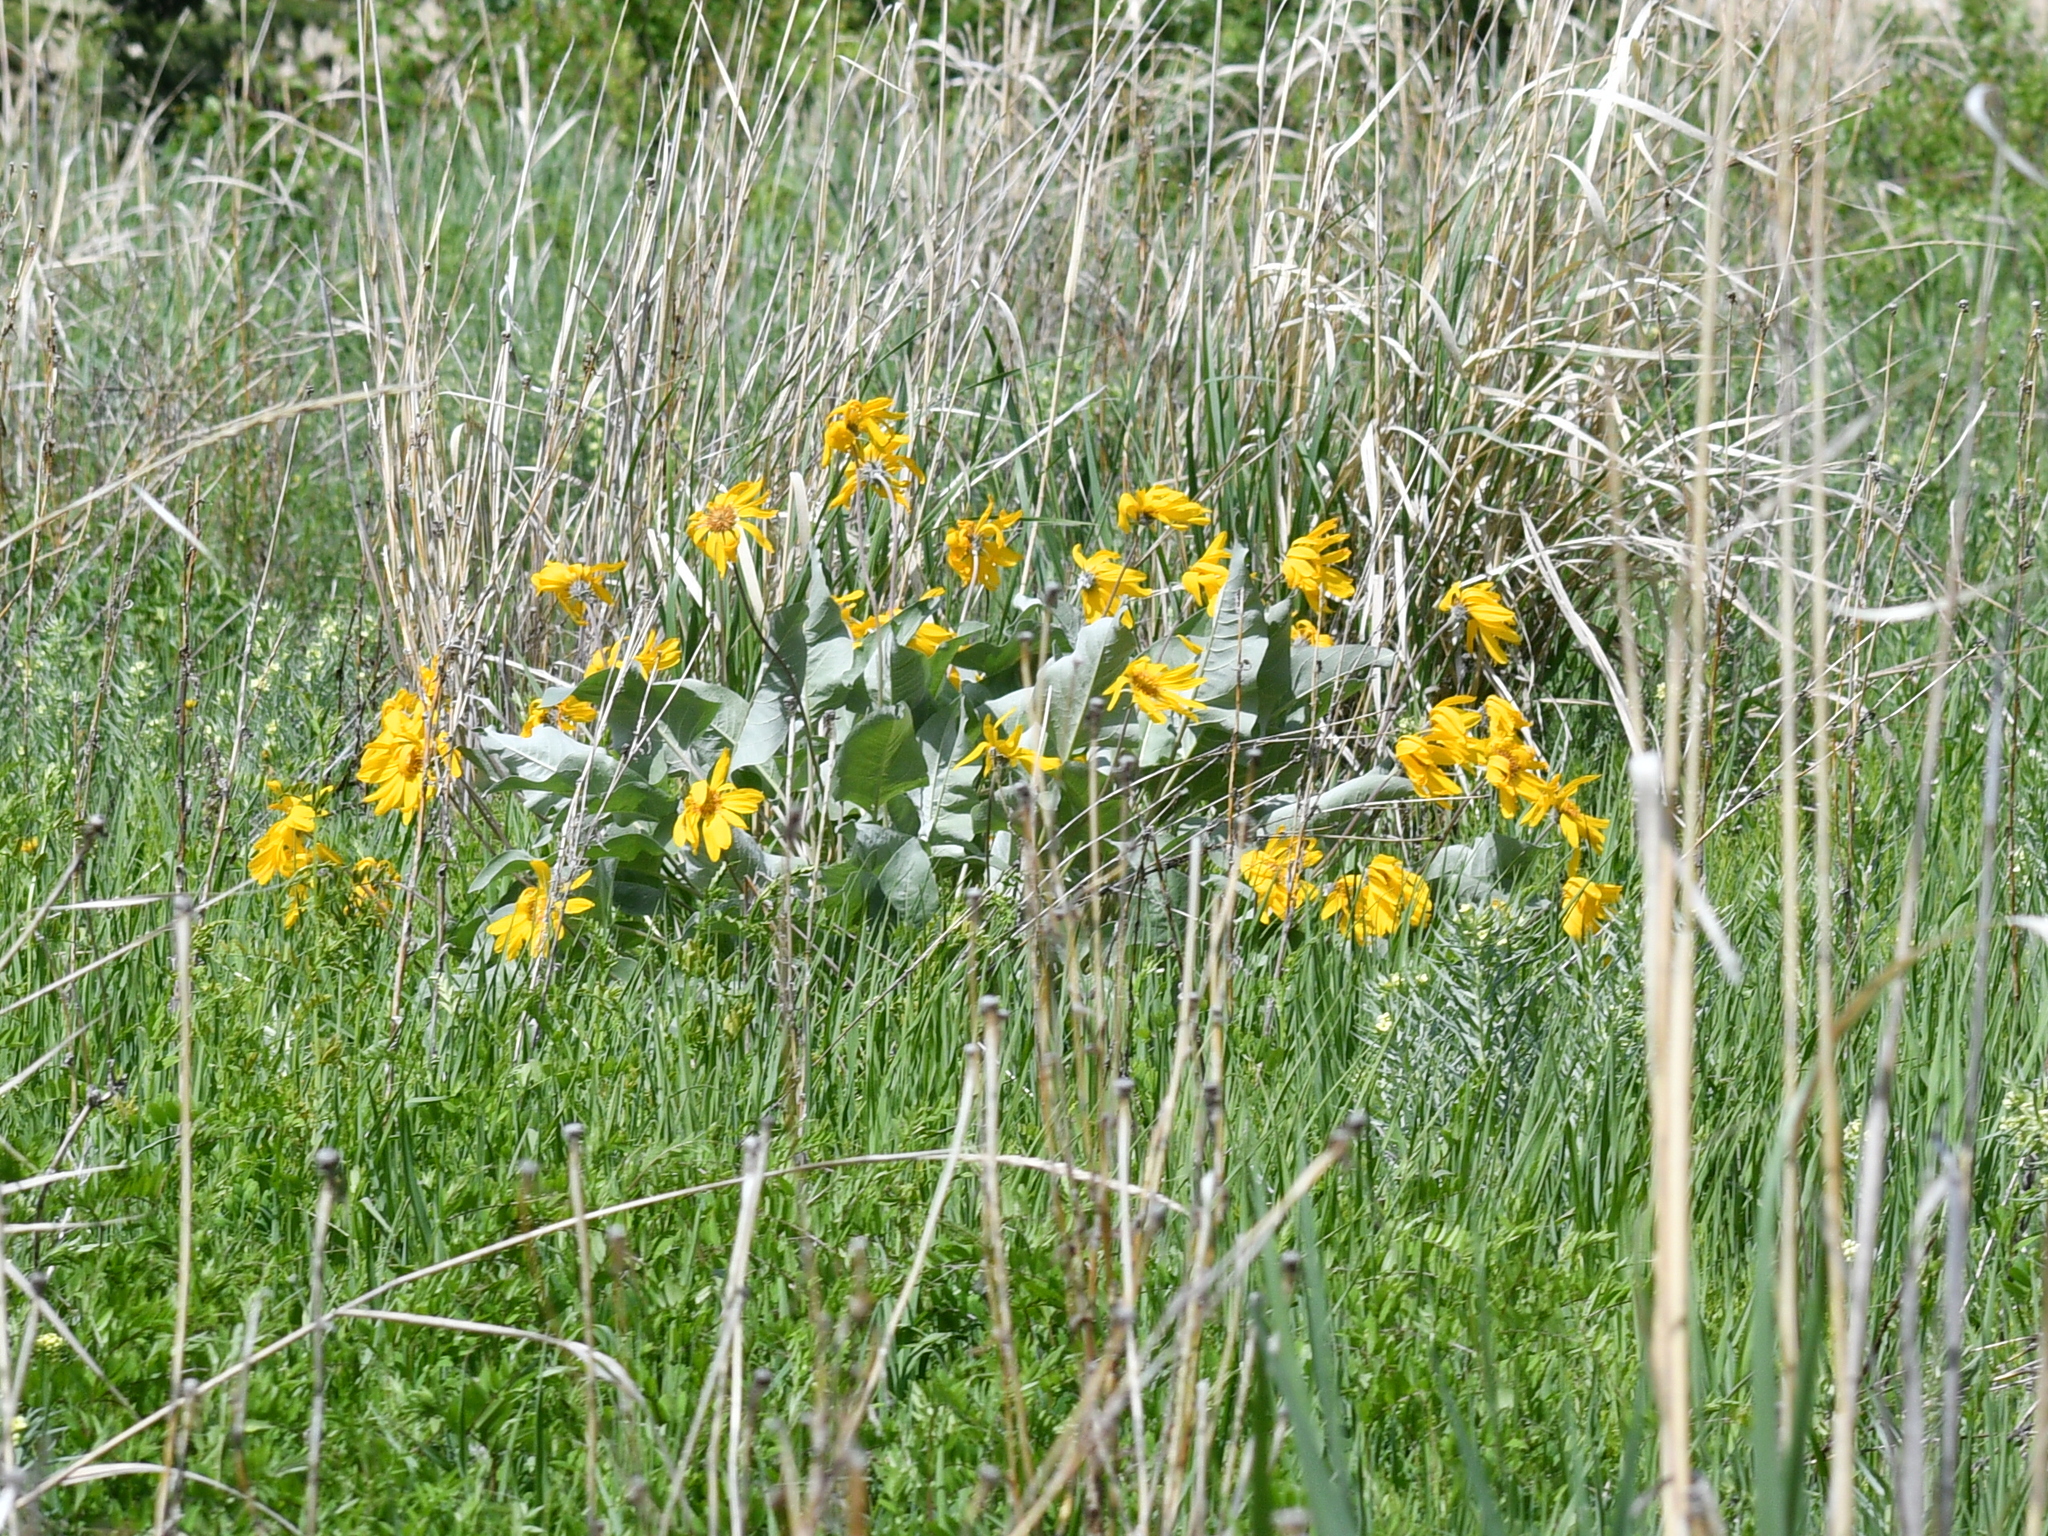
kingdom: Plantae
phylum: Tracheophyta
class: Magnoliopsida
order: Asterales
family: Asteraceae
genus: Wyethia
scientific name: Wyethia sagittata
